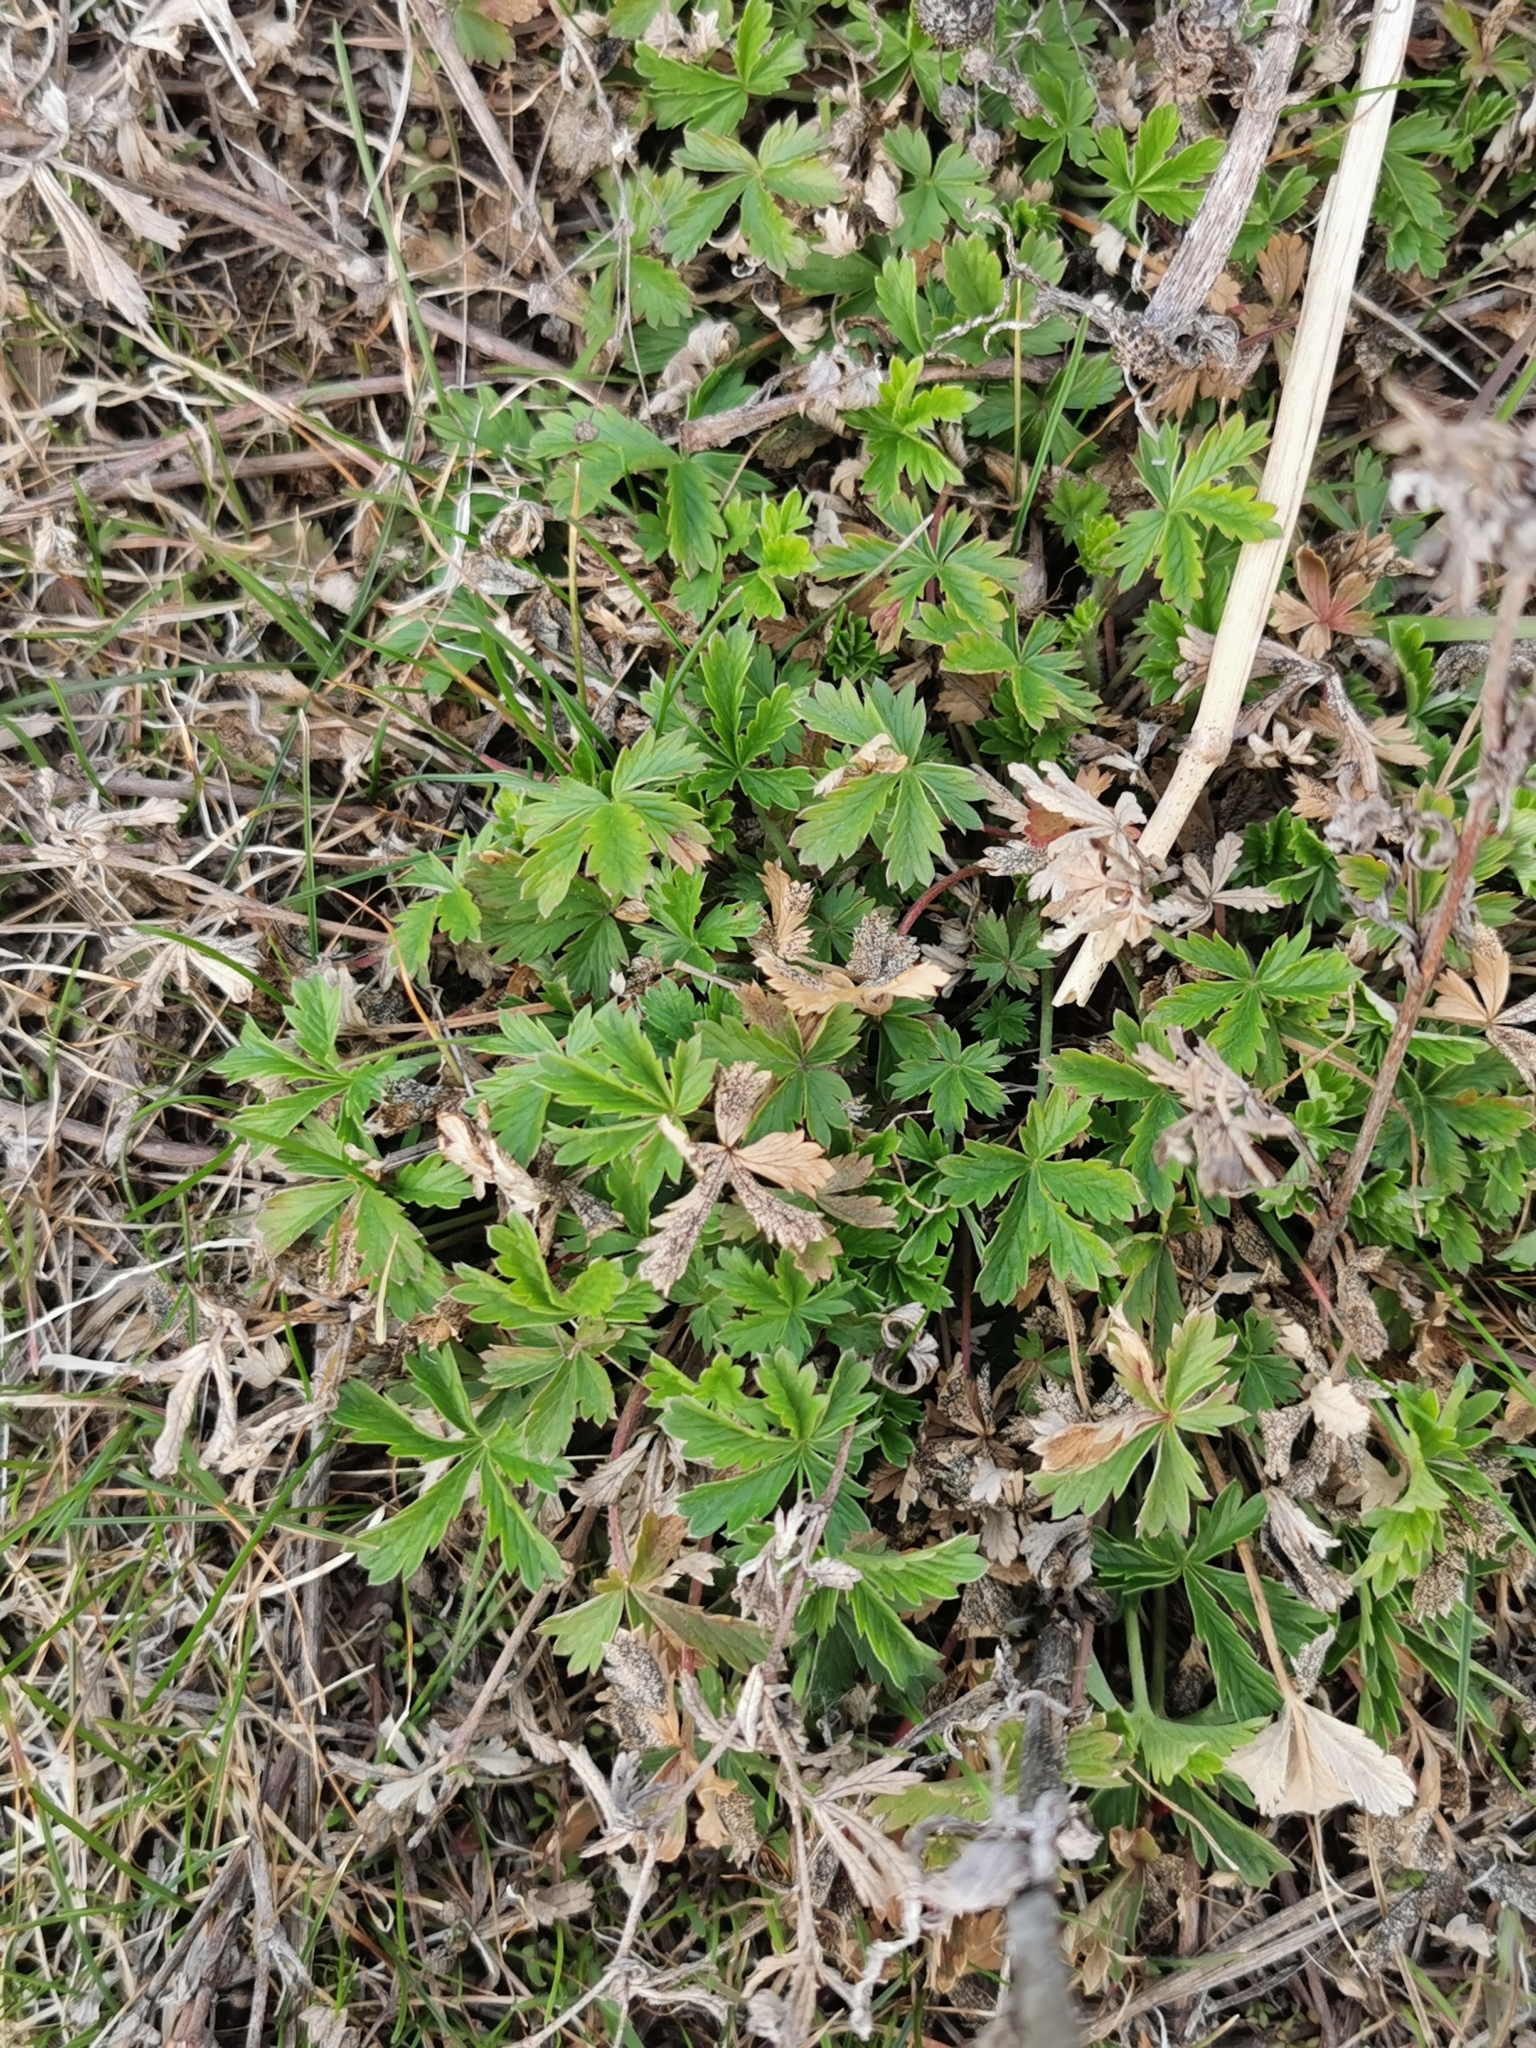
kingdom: Plantae
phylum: Tracheophyta
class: Magnoliopsida
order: Rosales
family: Rosaceae
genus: Potentilla
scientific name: Potentilla recta
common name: Sulphur cinquefoil
